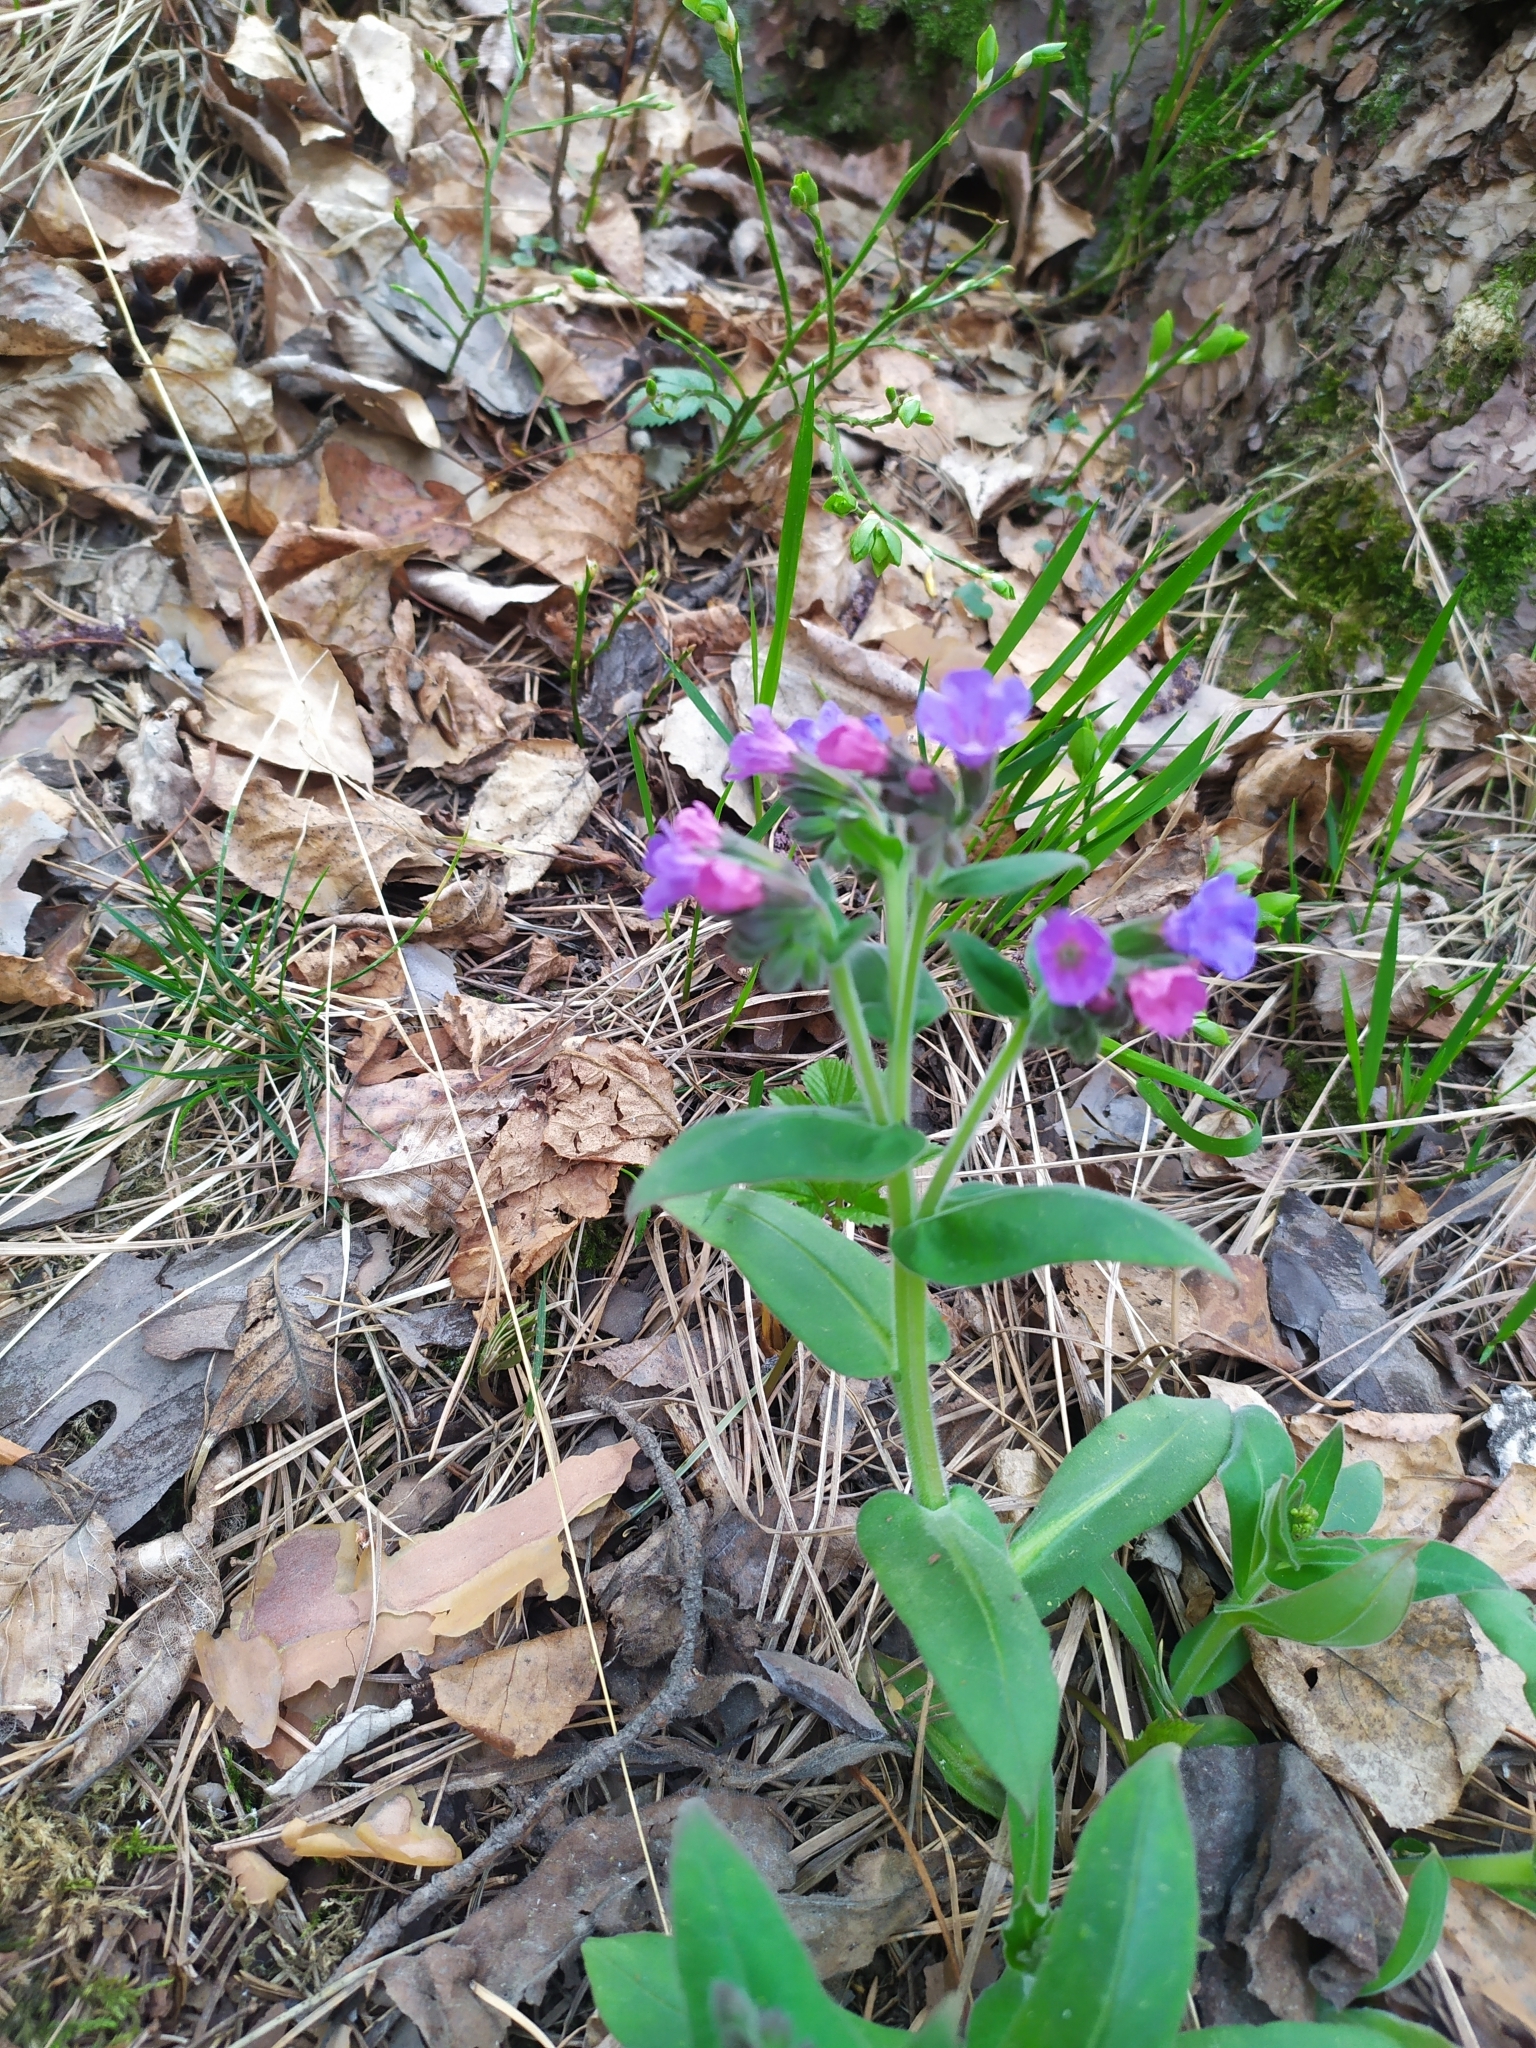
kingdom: Plantae
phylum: Tracheophyta
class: Magnoliopsida
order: Boraginales
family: Boraginaceae
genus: Pulmonaria
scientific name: Pulmonaria mollis
